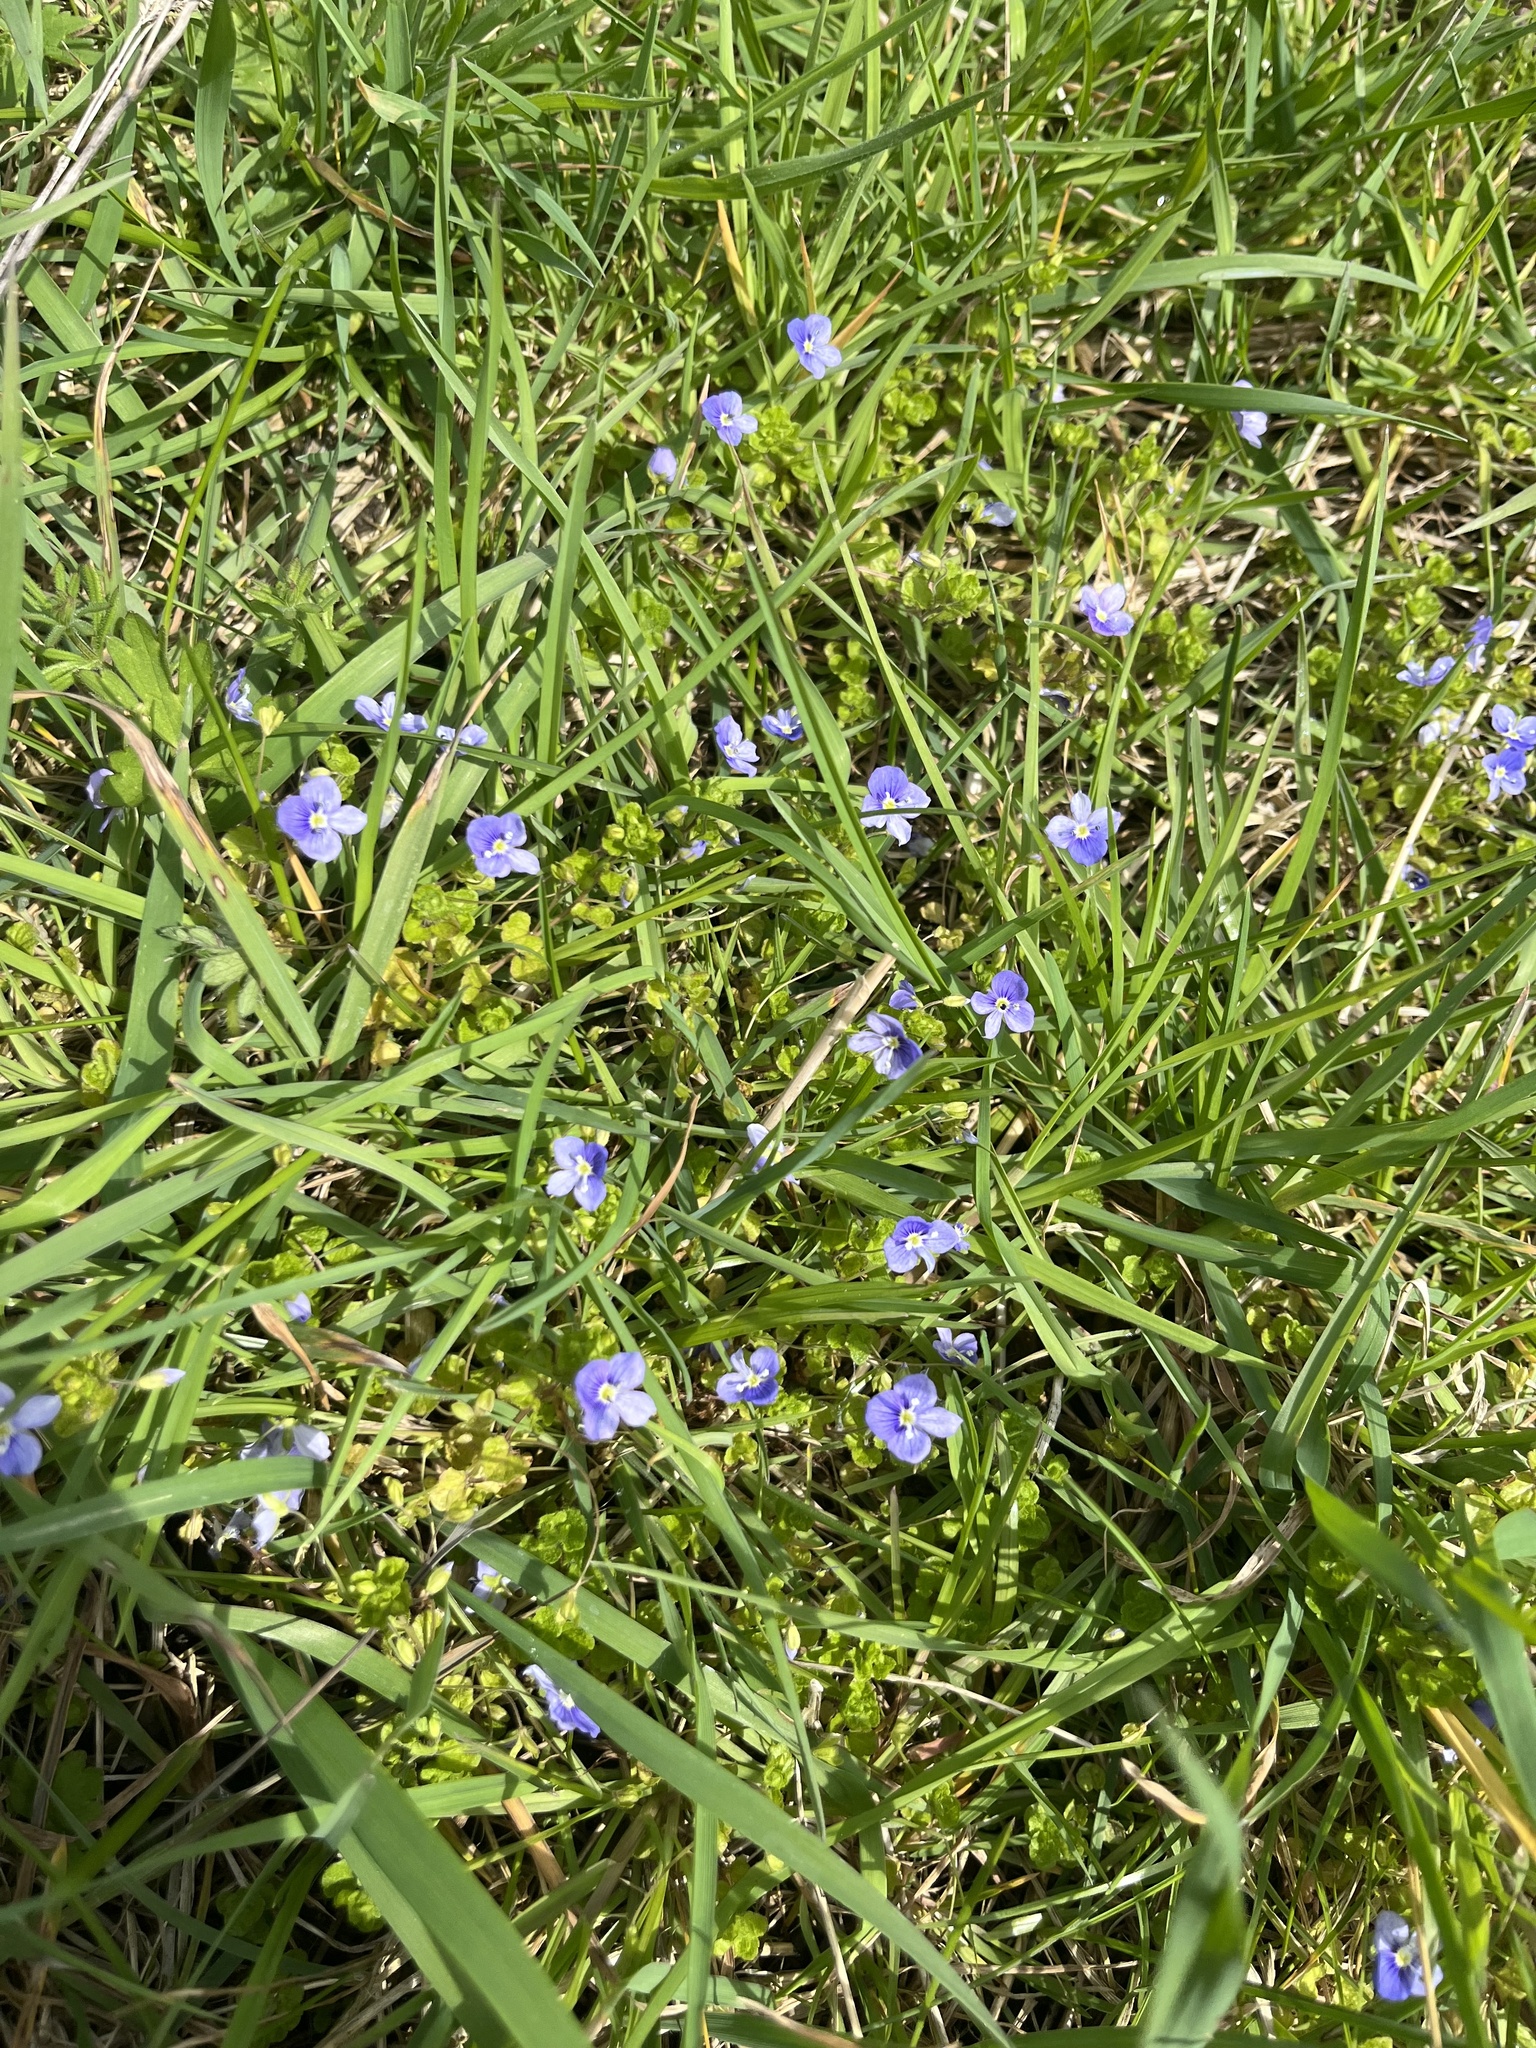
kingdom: Plantae
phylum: Tracheophyta
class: Magnoliopsida
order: Lamiales
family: Plantaginaceae
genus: Veronica
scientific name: Veronica filiformis
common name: Slender speedwell
